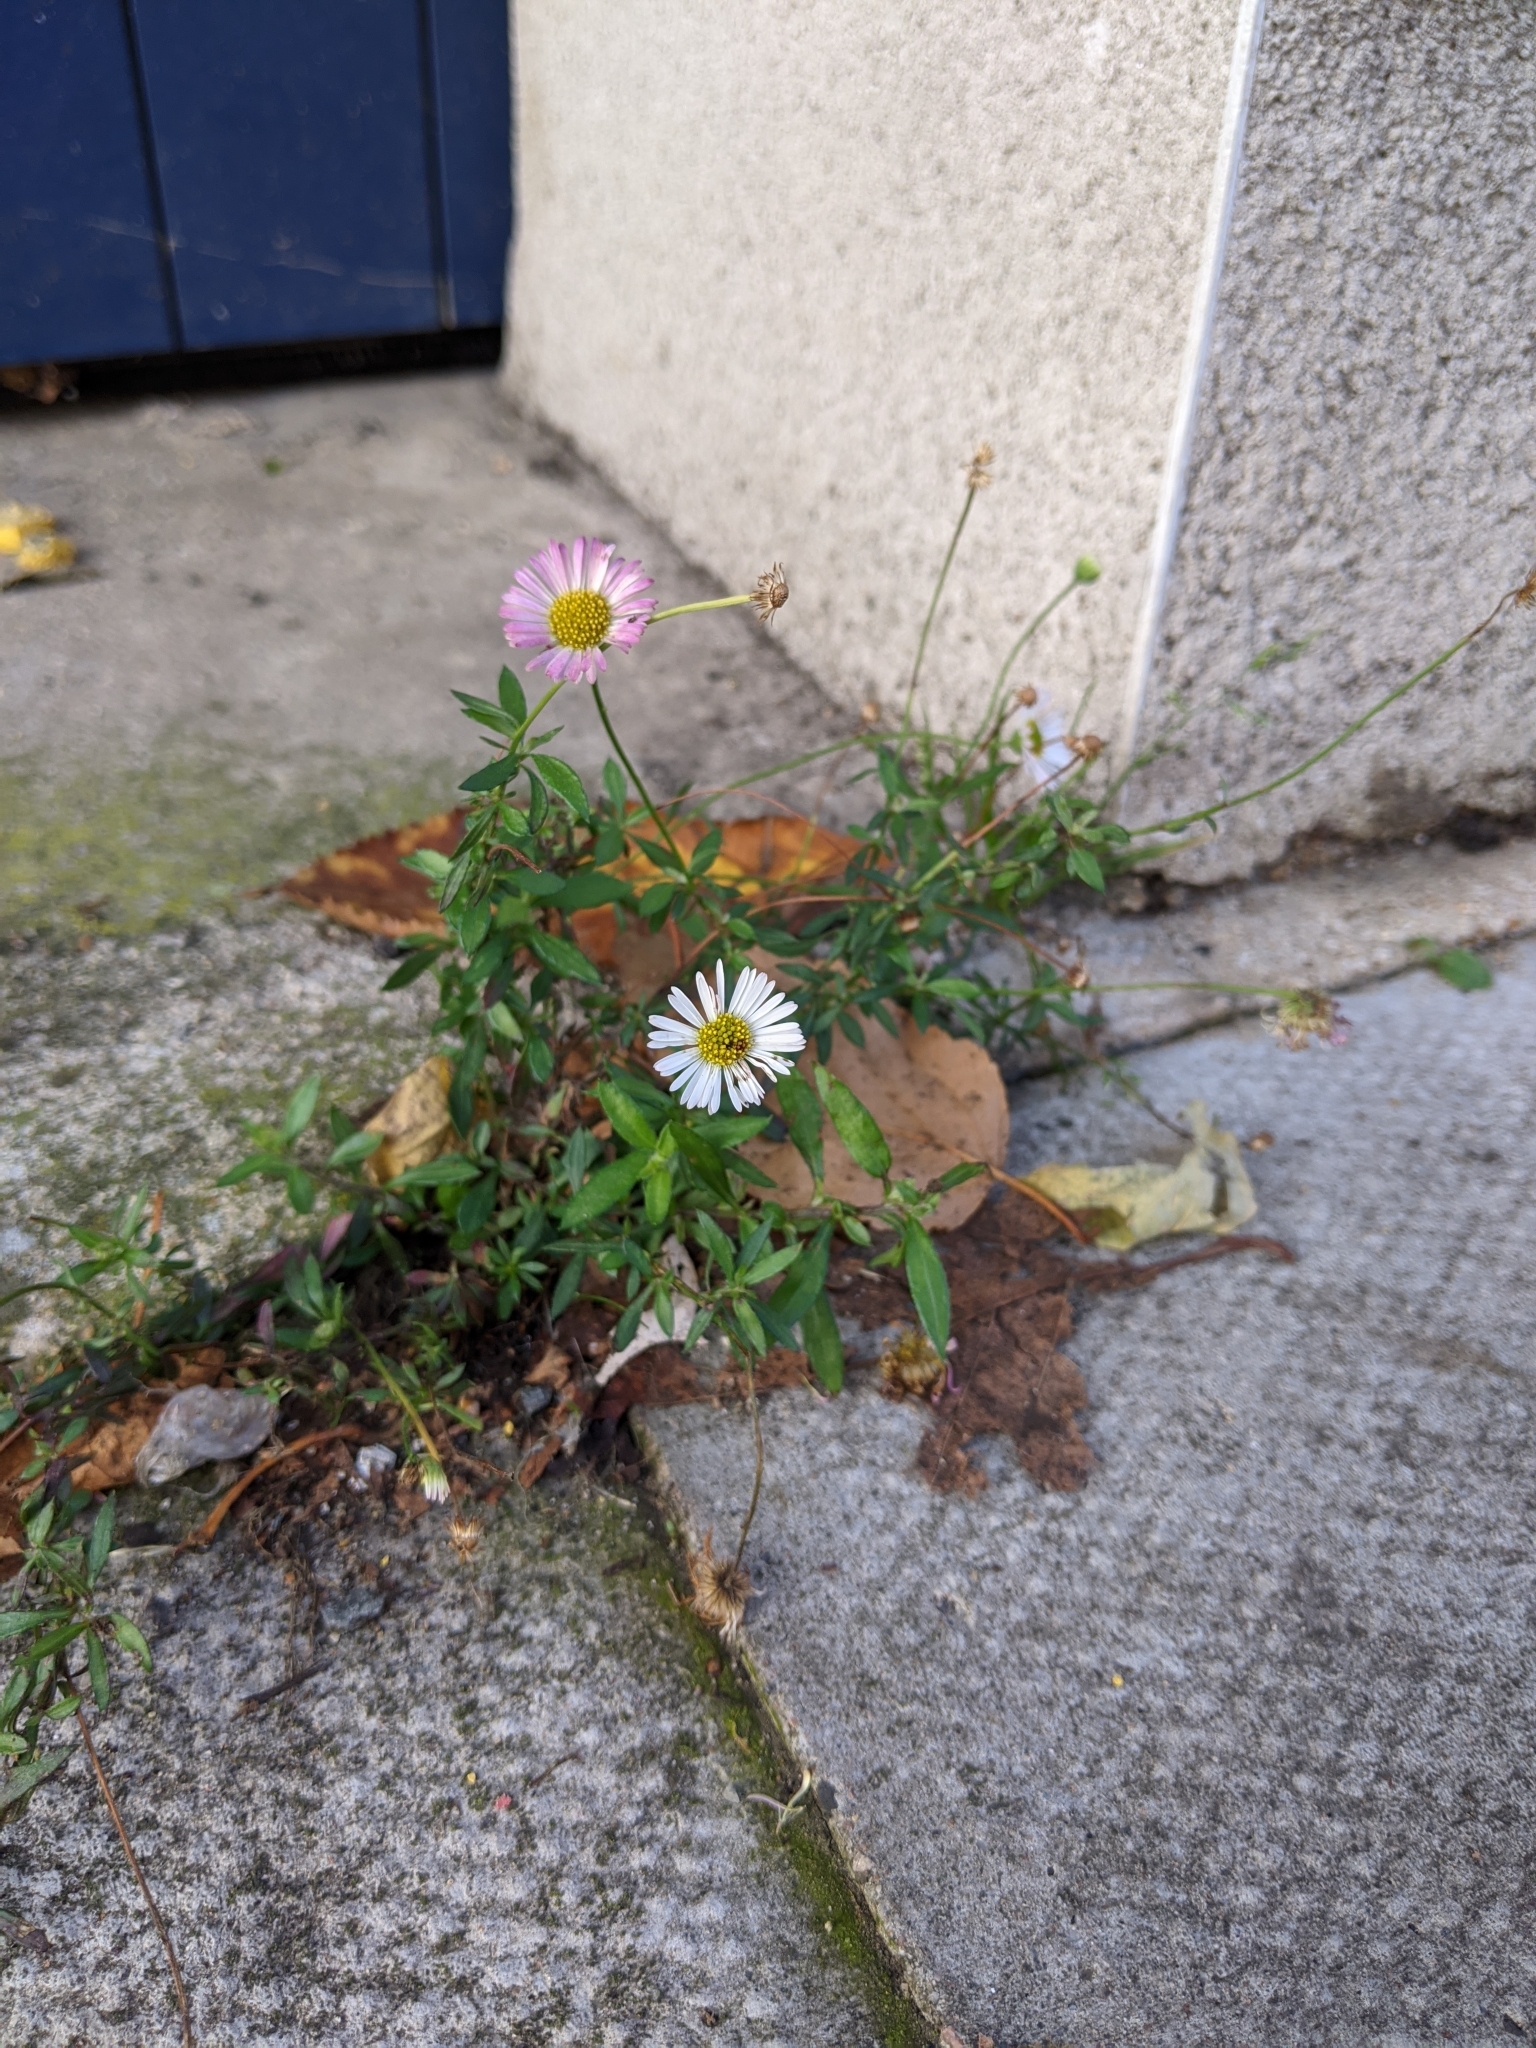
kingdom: Plantae
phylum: Tracheophyta
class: Magnoliopsida
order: Asterales
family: Asteraceae
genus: Erigeron
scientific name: Erigeron karvinskianus
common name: Mexican fleabane
